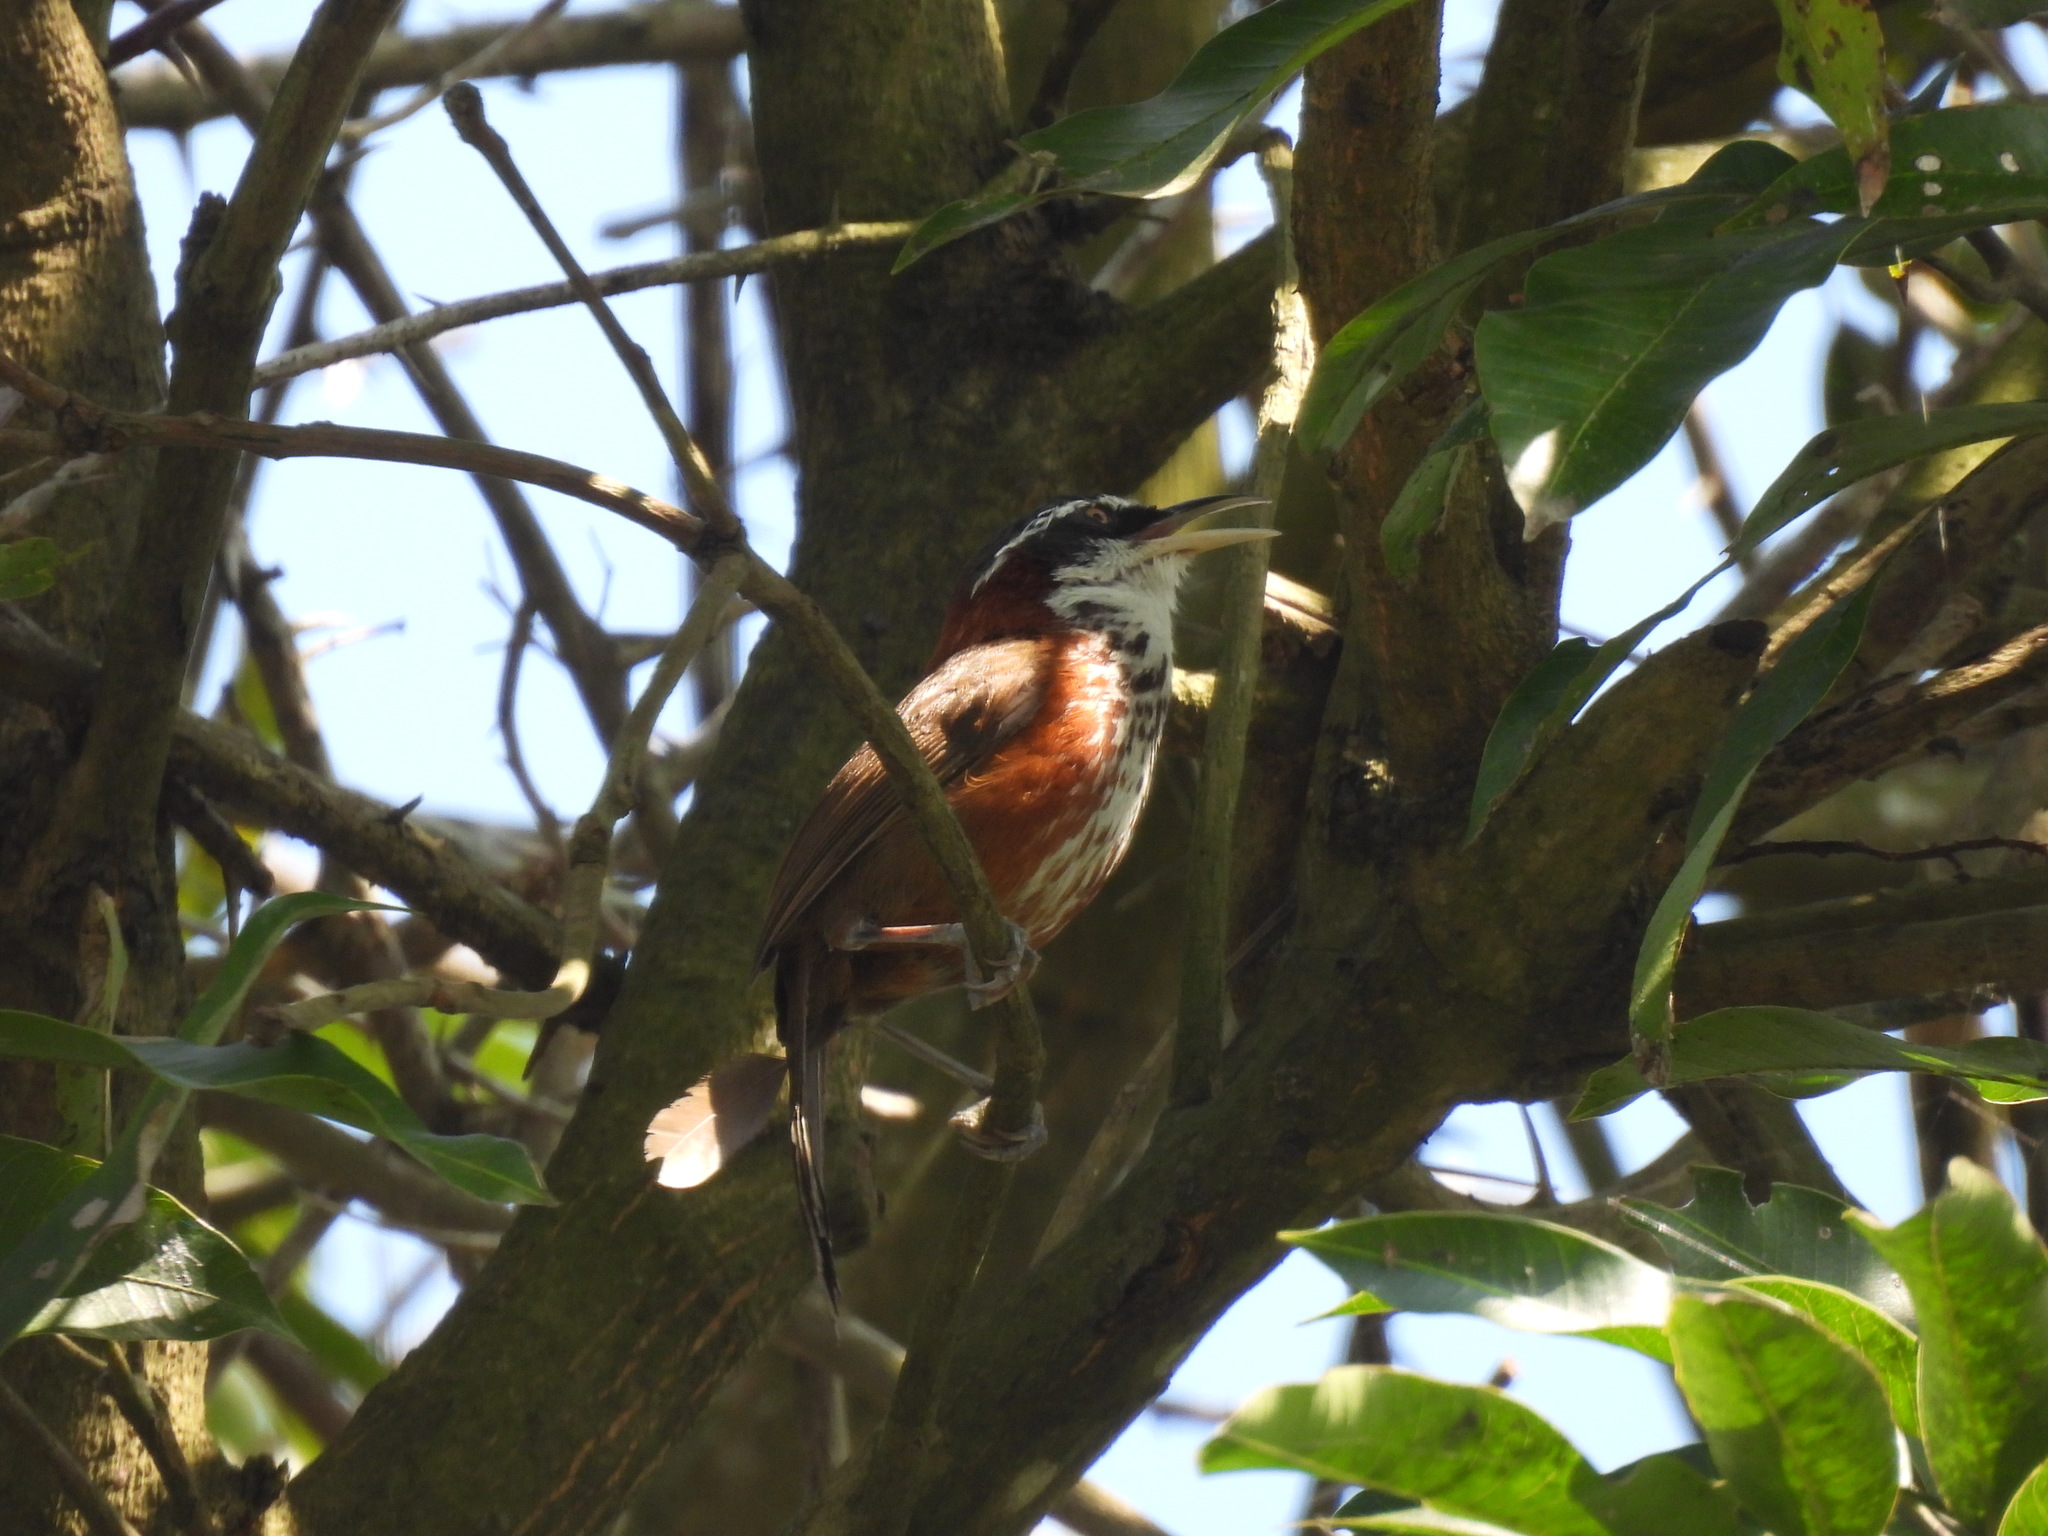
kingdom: Animalia
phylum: Chordata
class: Aves
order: Passeriformes
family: Timaliidae
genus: Pomatorhinus
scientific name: Pomatorhinus musicus
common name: Taiwan scimitar-babbler
